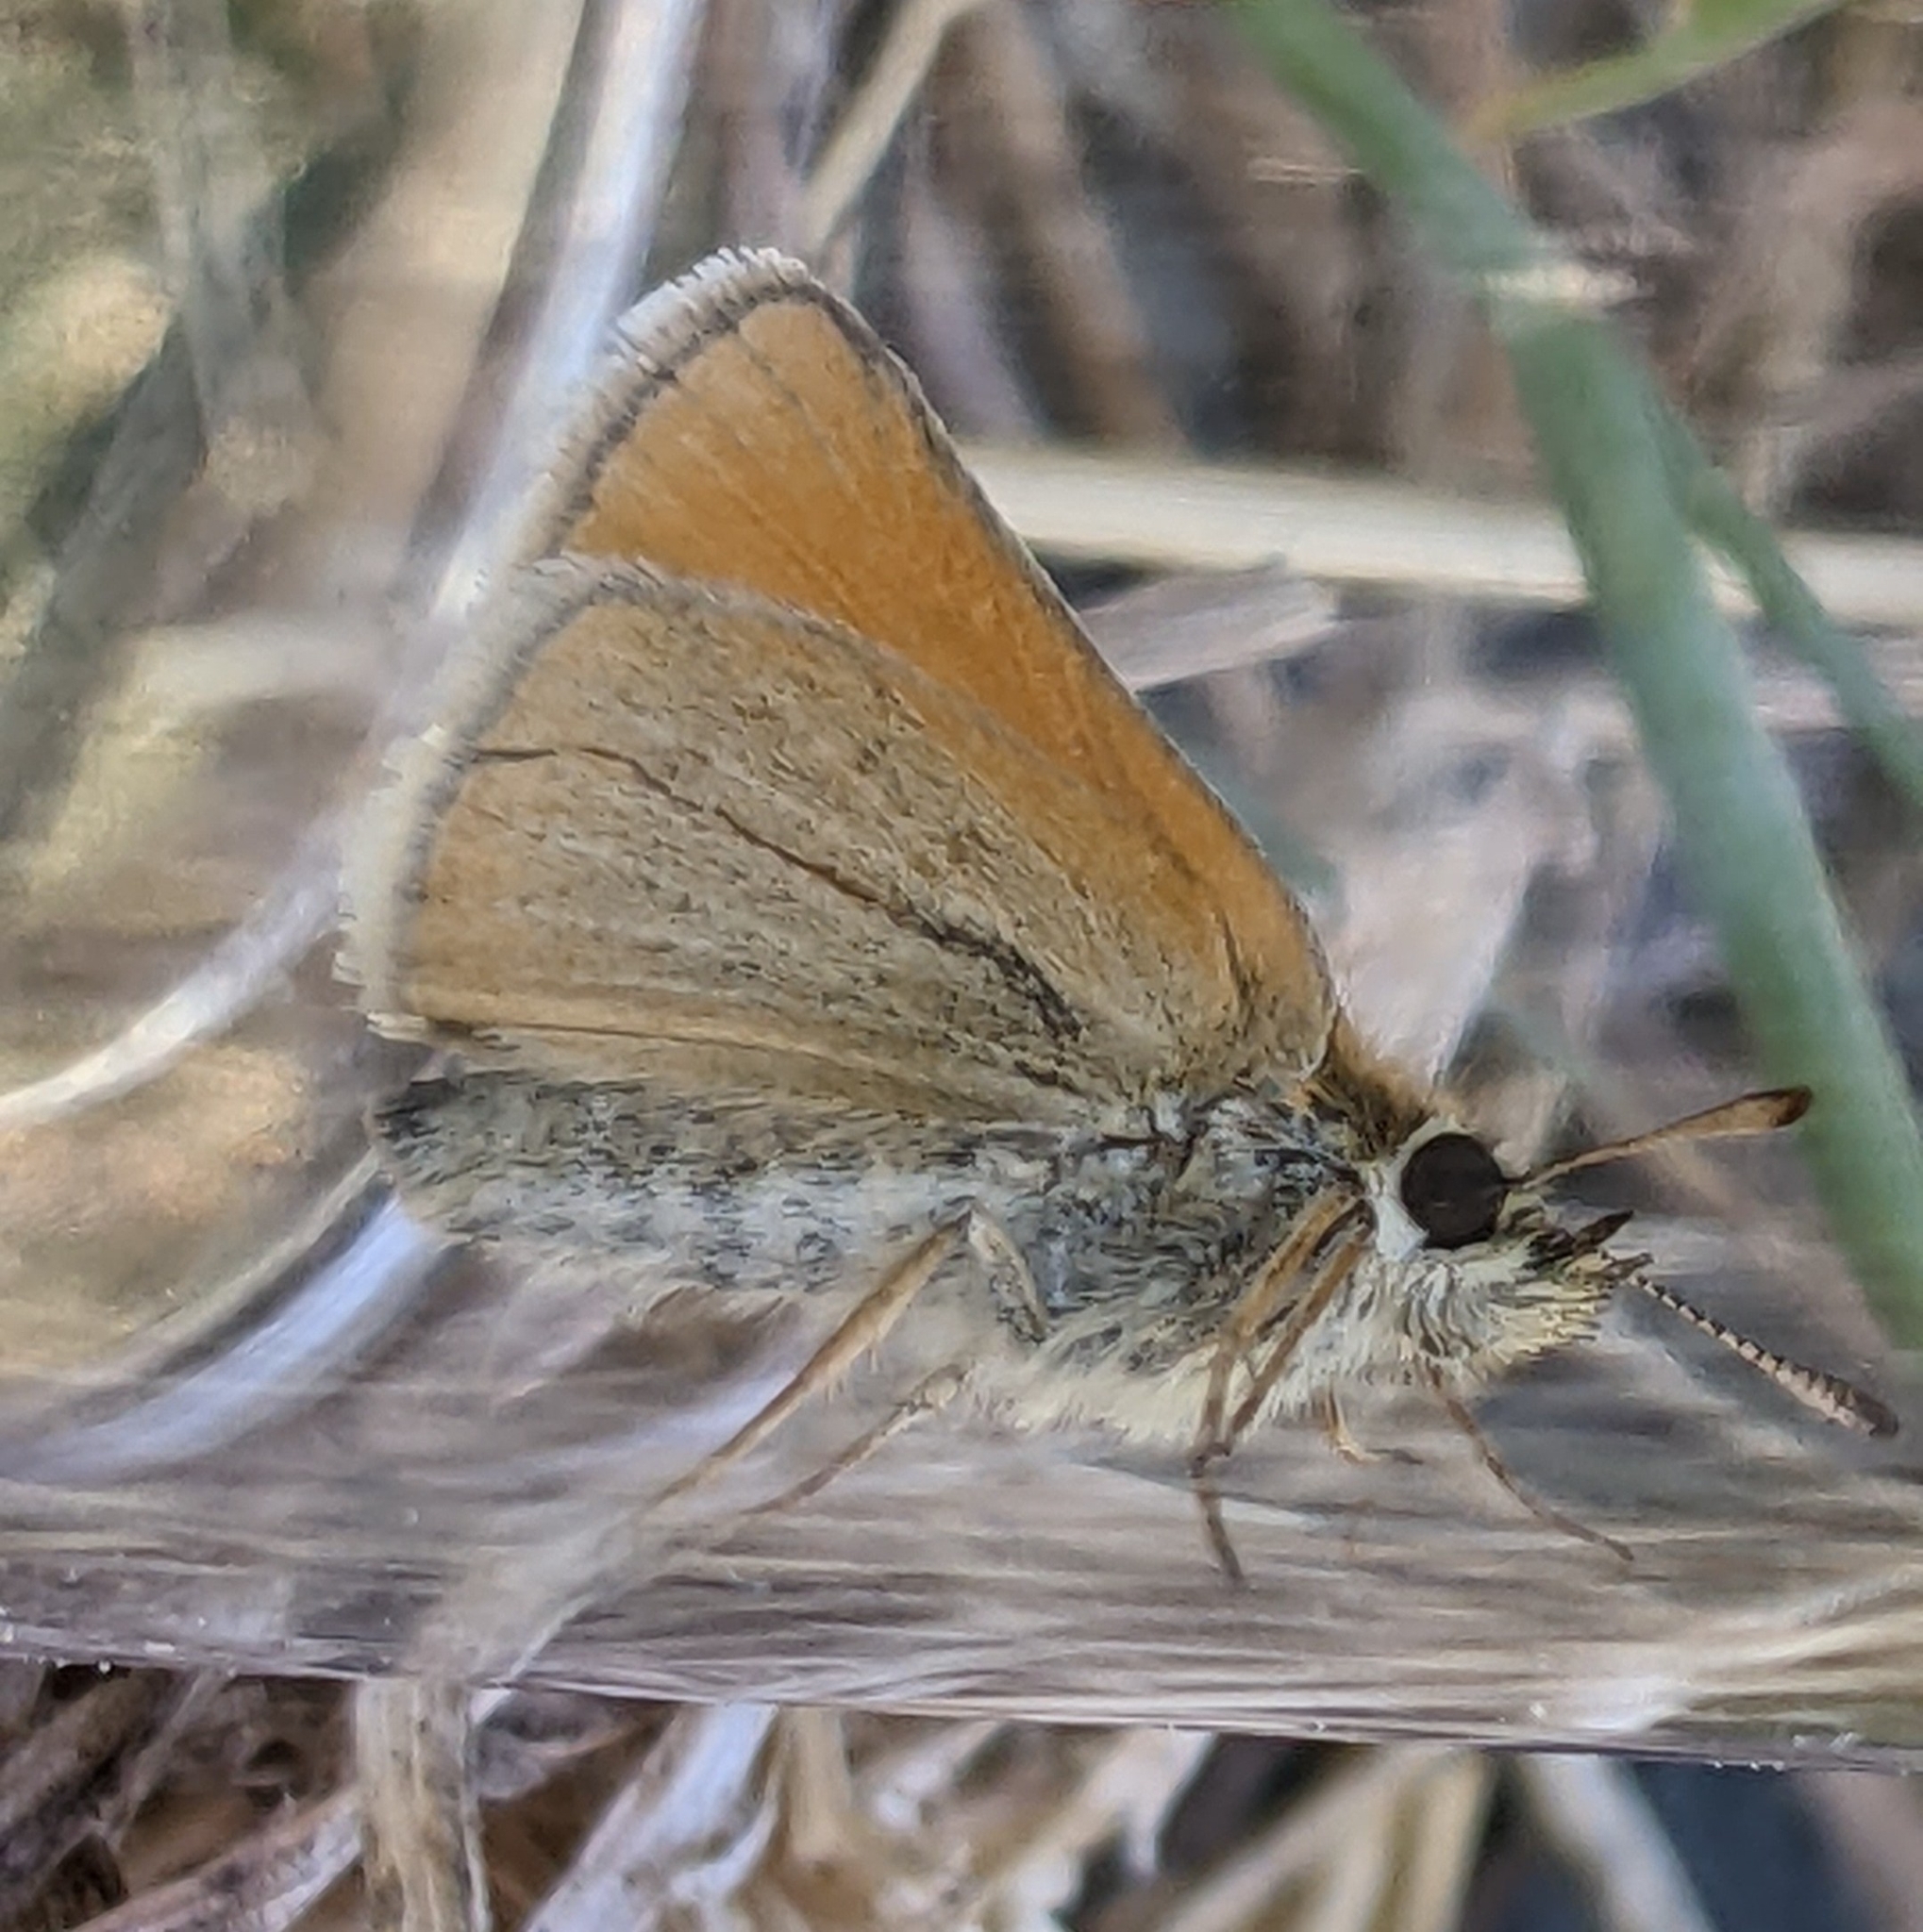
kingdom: Animalia
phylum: Arthropoda
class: Insecta
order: Lepidoptera
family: Hesperiidae
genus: Thymelicus
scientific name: Thymelicus lineola
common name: Essex skipper
